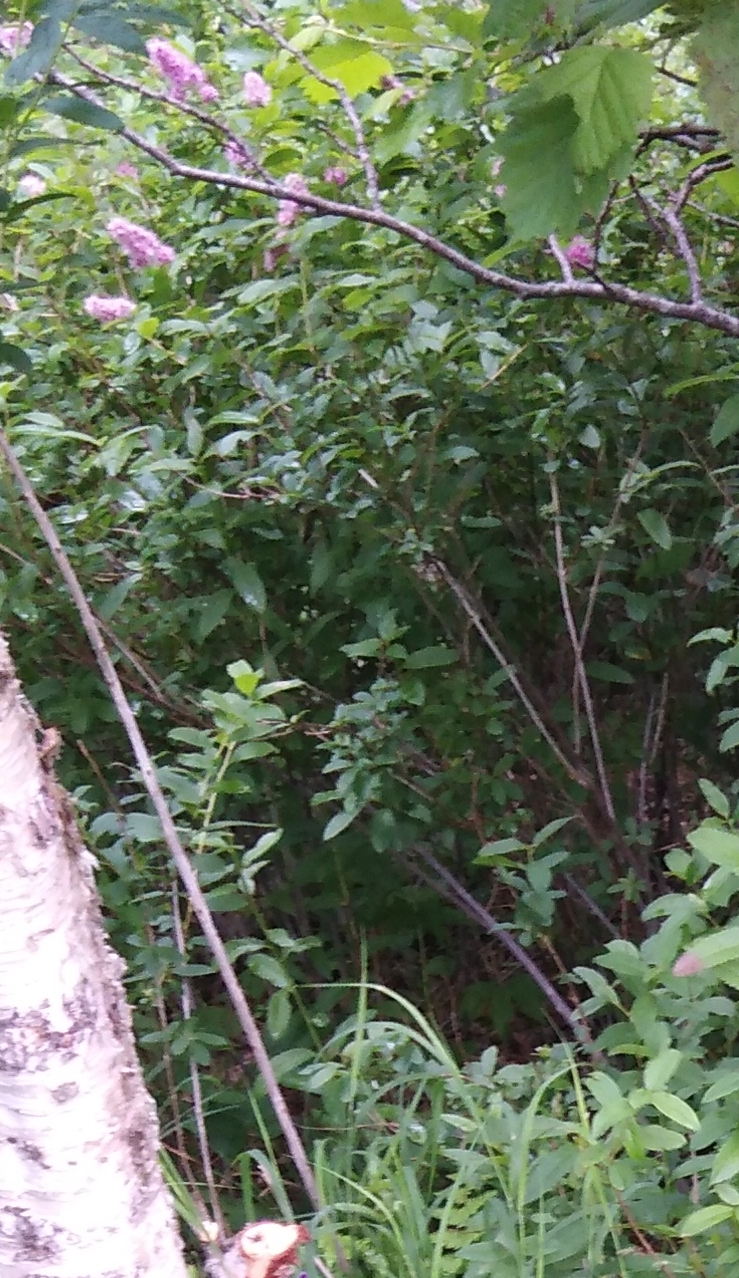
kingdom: Plantae
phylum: Tracheophyta
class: Magnoliopsida
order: Rosales
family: Rosaceae
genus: Spiraea
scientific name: Spiraea salicifolia
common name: Bridewort
